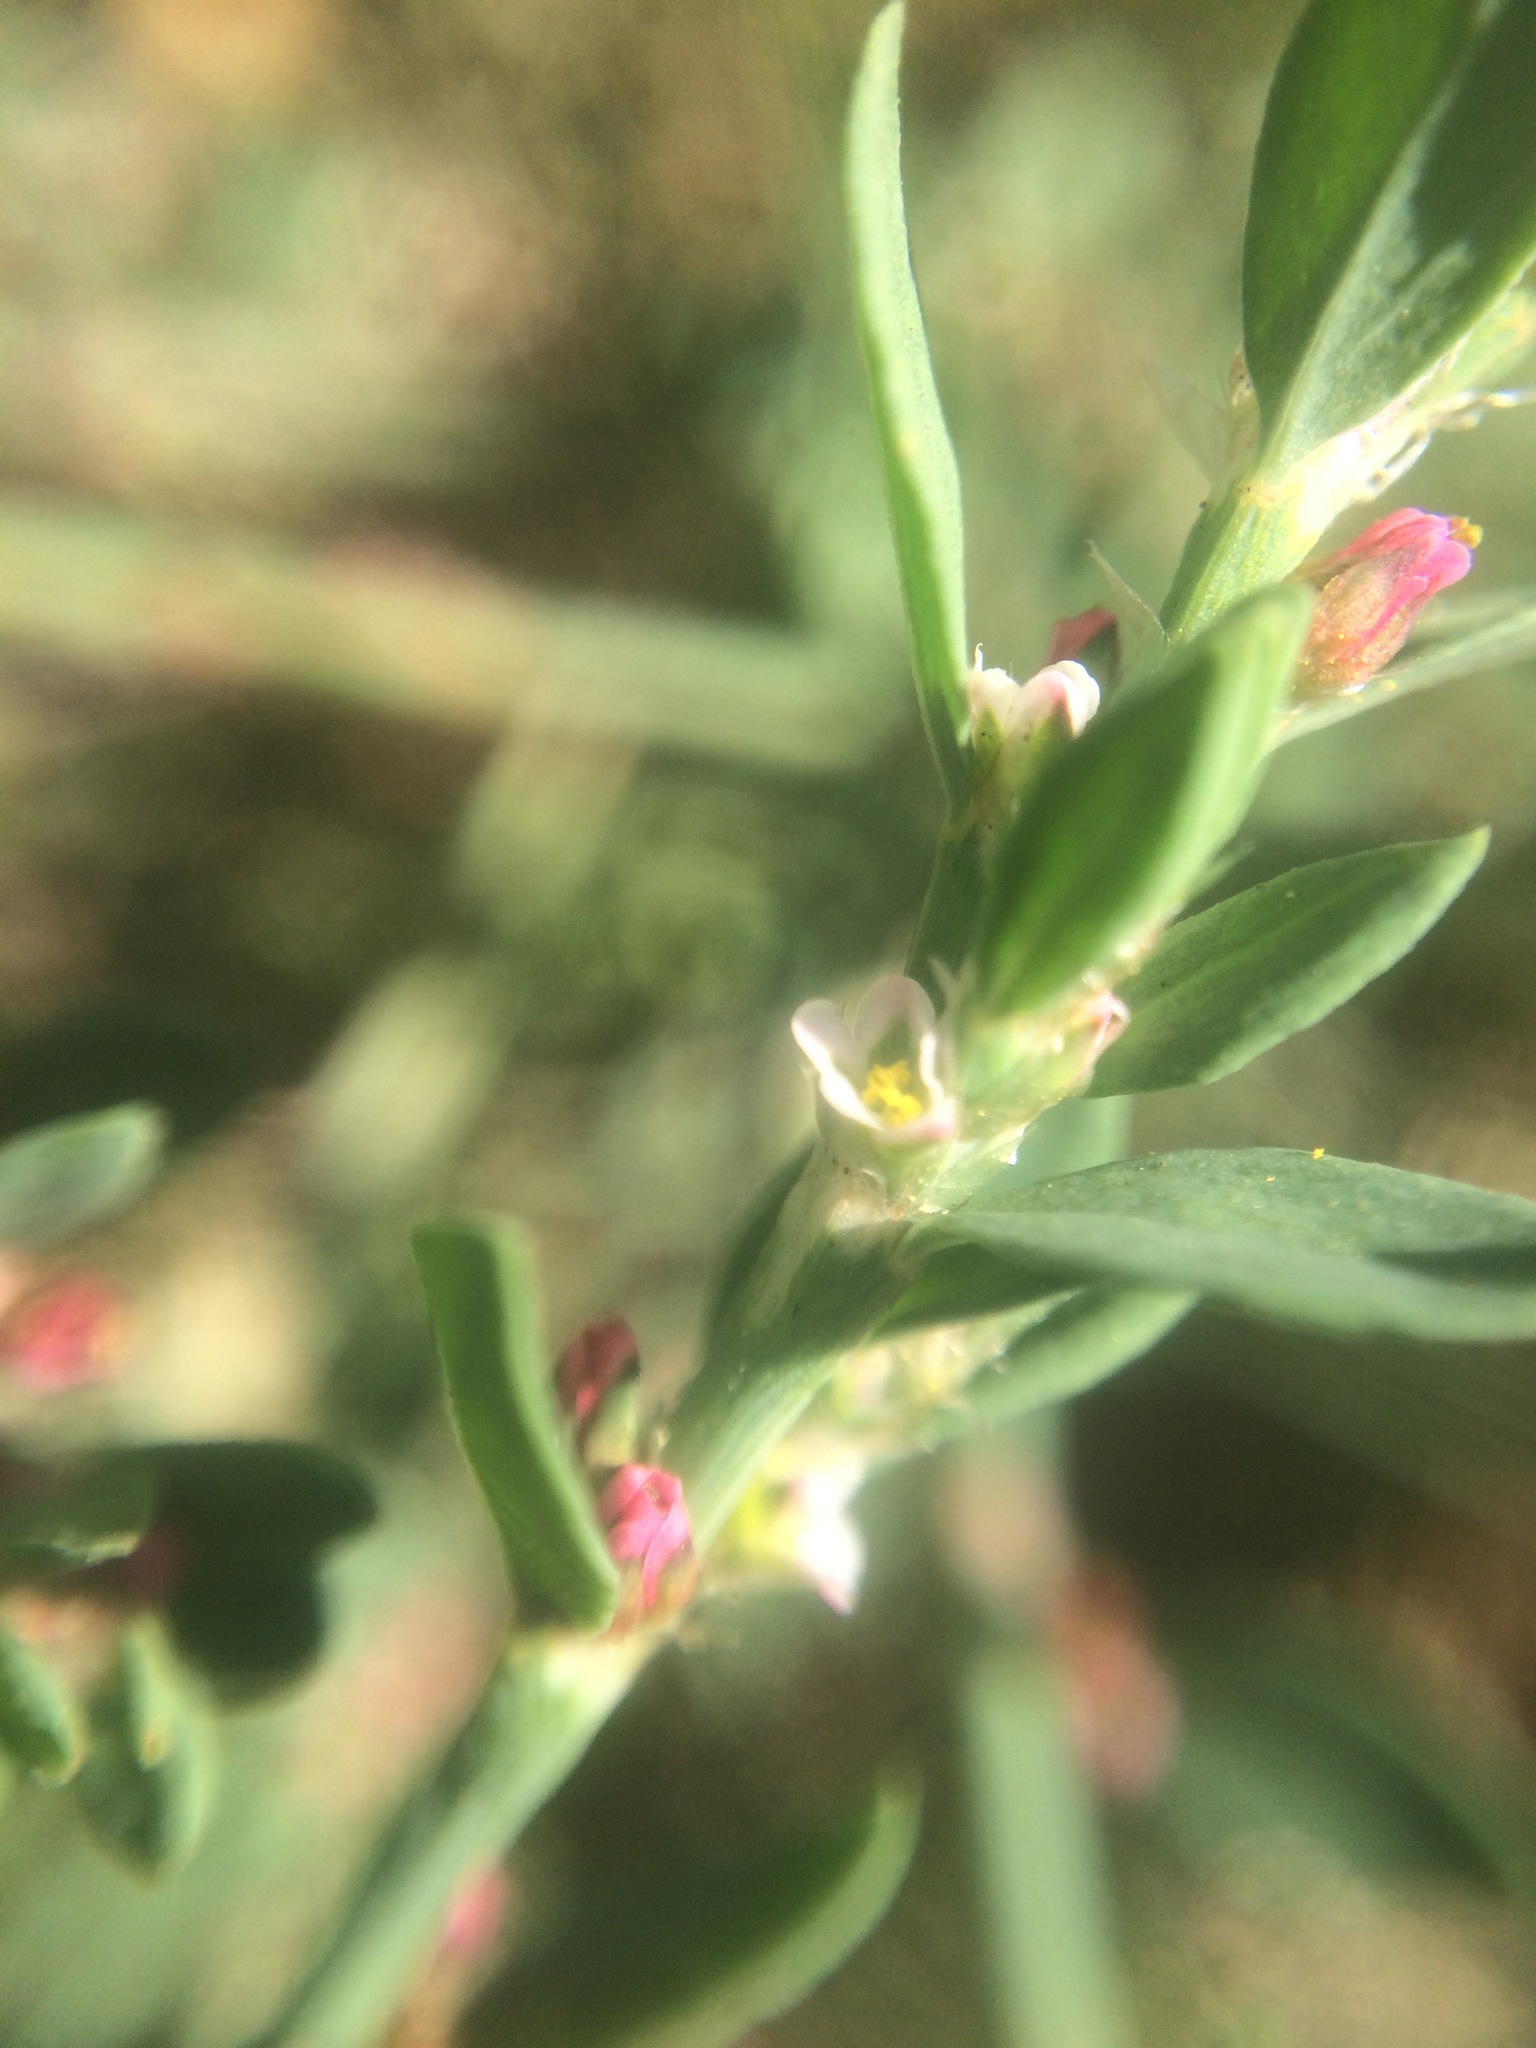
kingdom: Plantae
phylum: Tracheophyta
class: Magnoliopsida
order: Caryophyllales
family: Polygonaceae
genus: Polygonum
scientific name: Polygonum aviculare
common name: Prostrate knotweed
